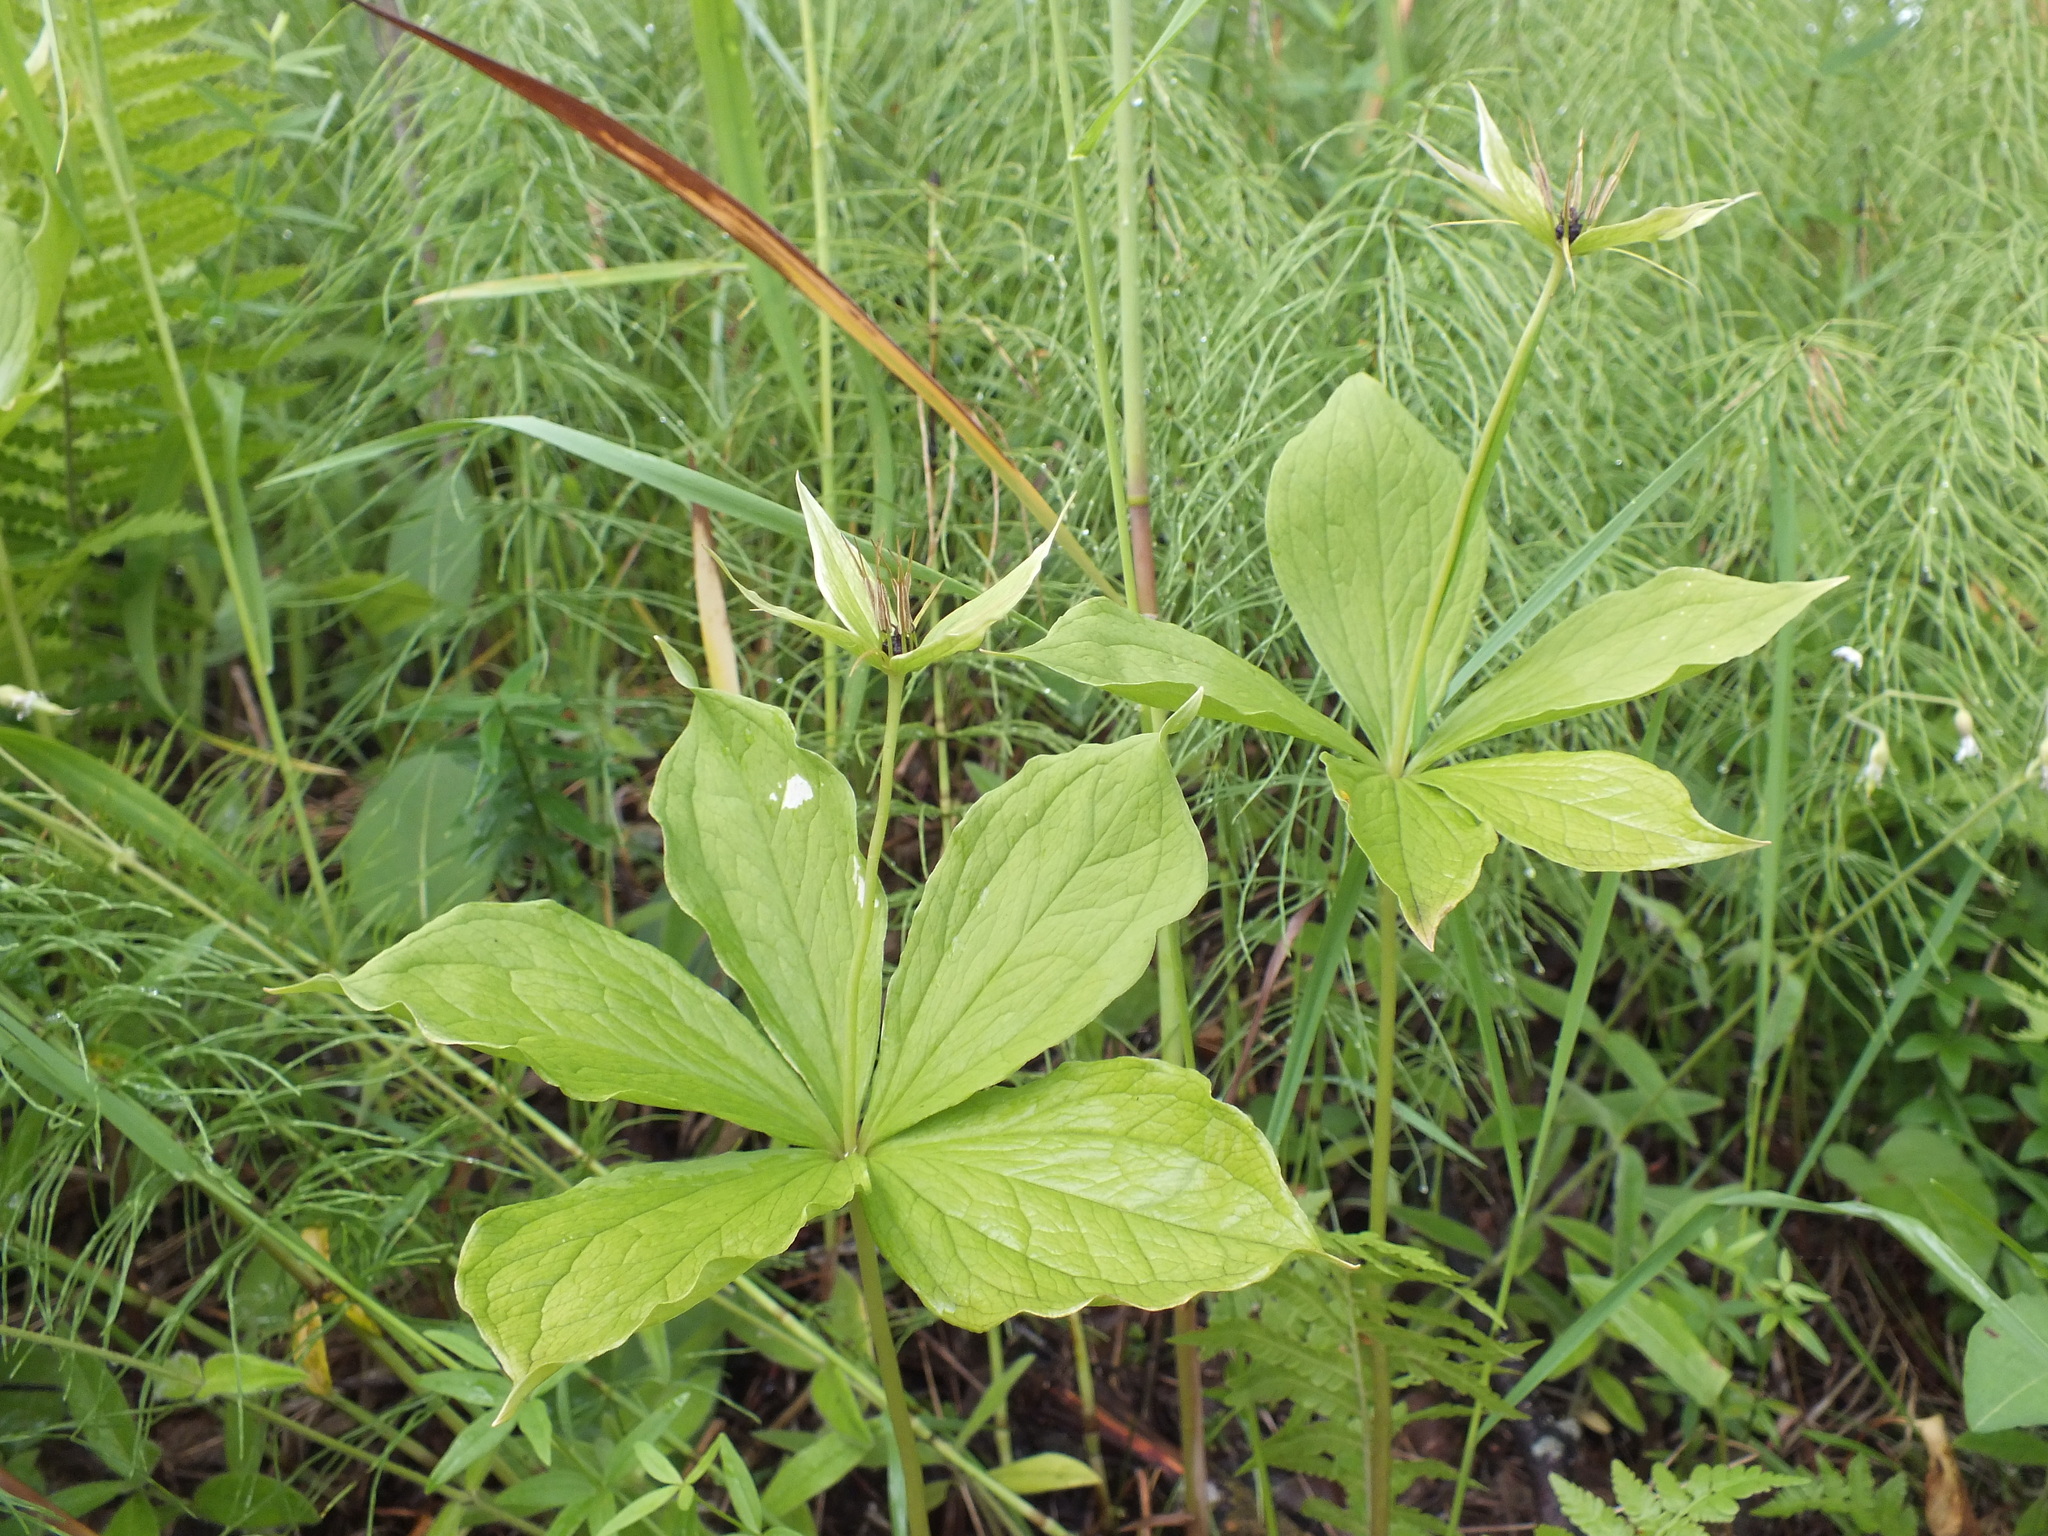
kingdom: Plantae
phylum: Tracheophyta
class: Liliopsida
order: Liliales
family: Melanthiaceae
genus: Paris
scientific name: Paris quadrifolia
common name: Herb-paris
